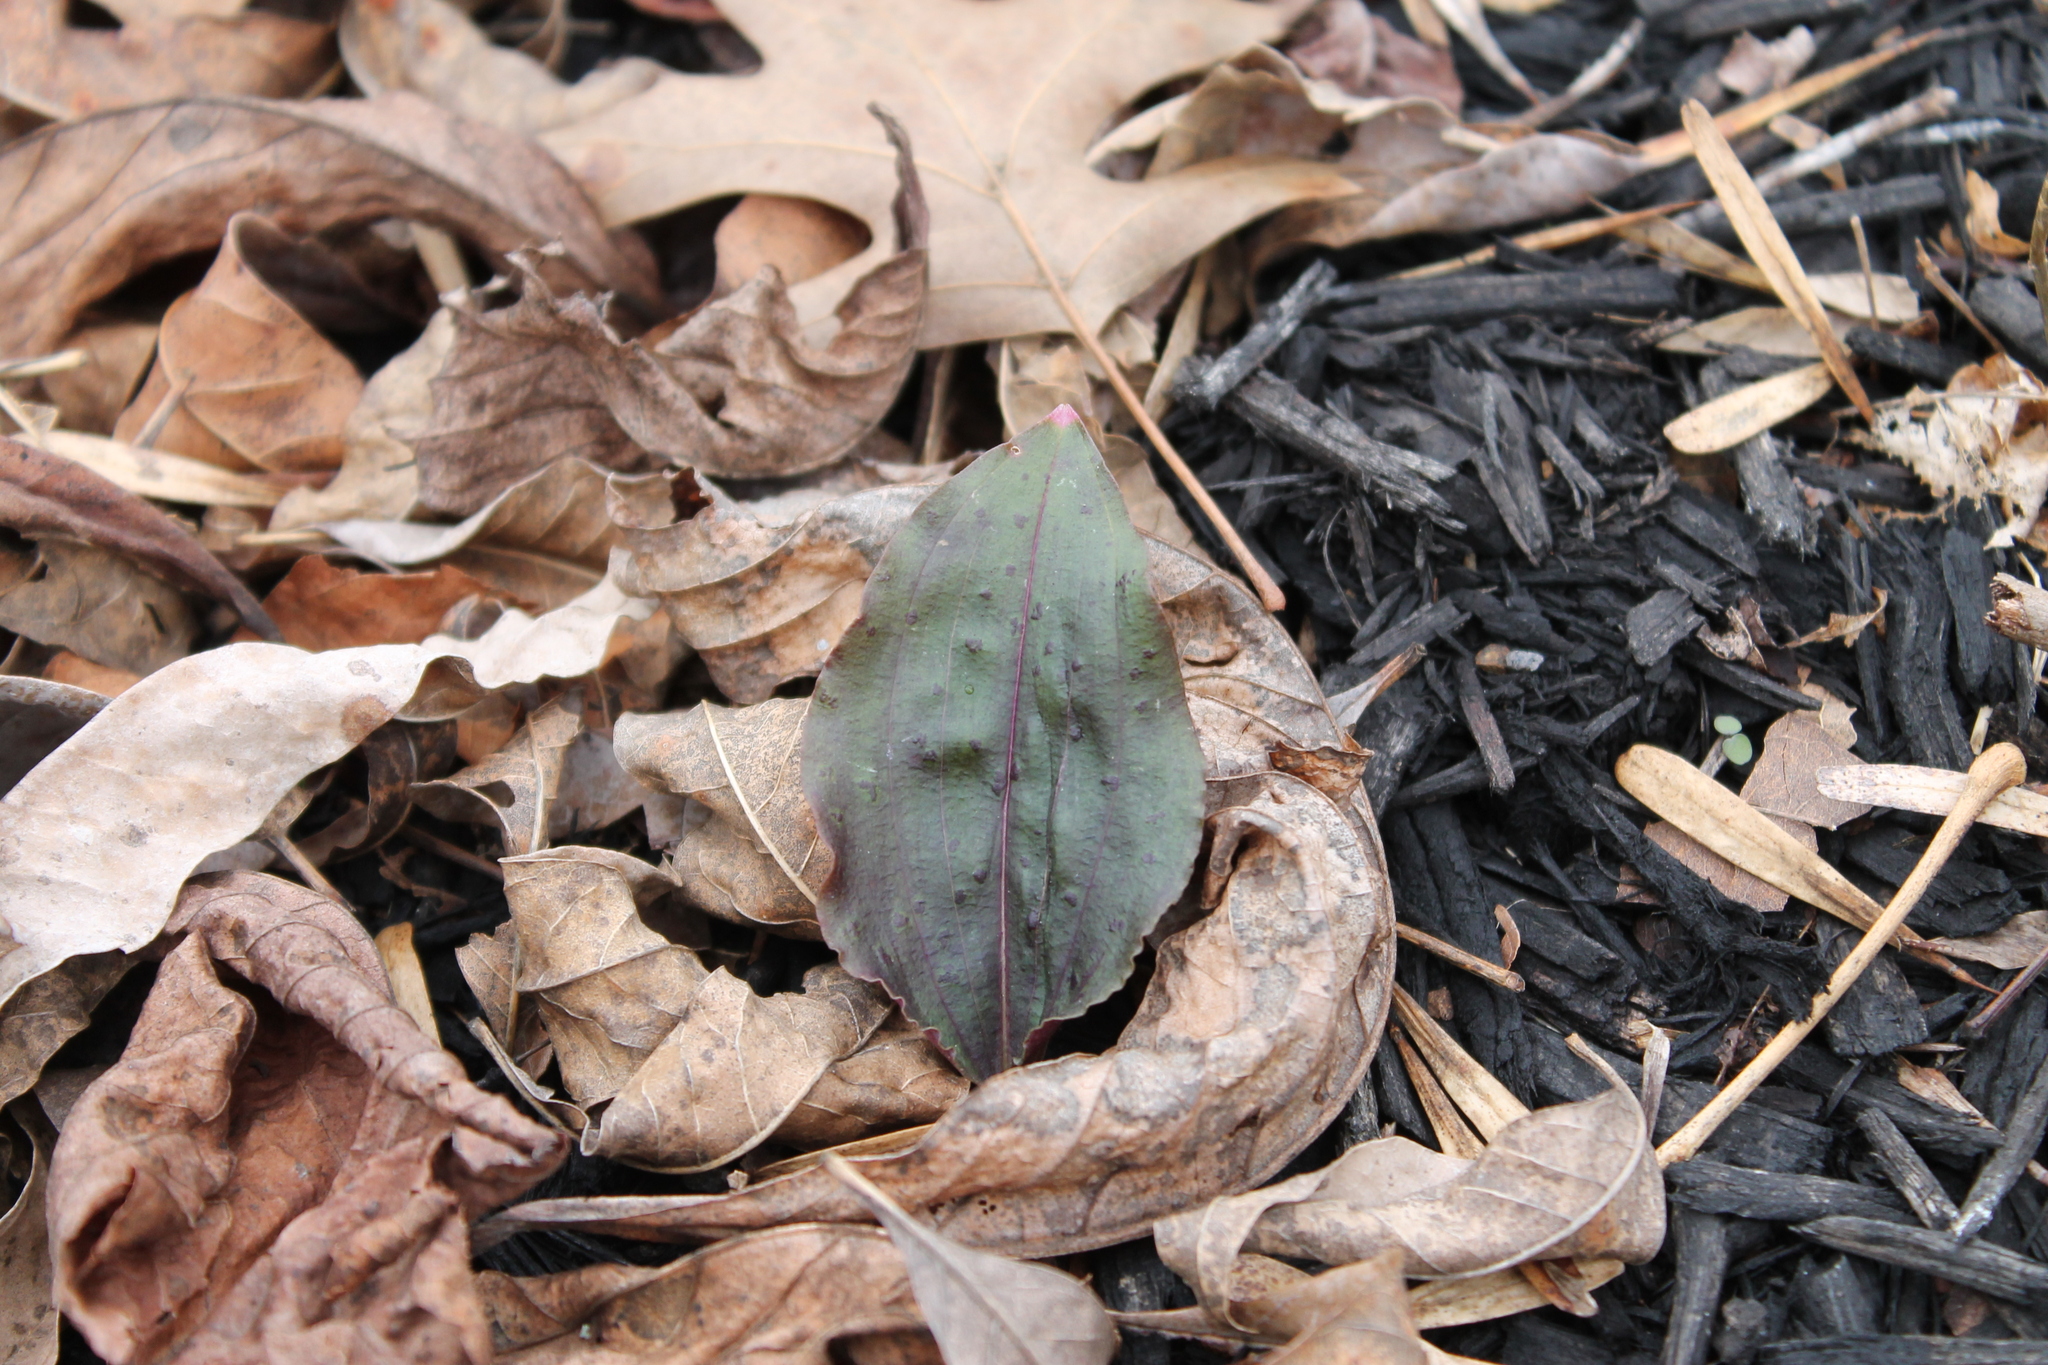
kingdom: Plantae
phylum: Tracheophyta
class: Liliopsida
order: Asparagales
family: Orchidaceae
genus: Tipularia
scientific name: Tipularia discolor
